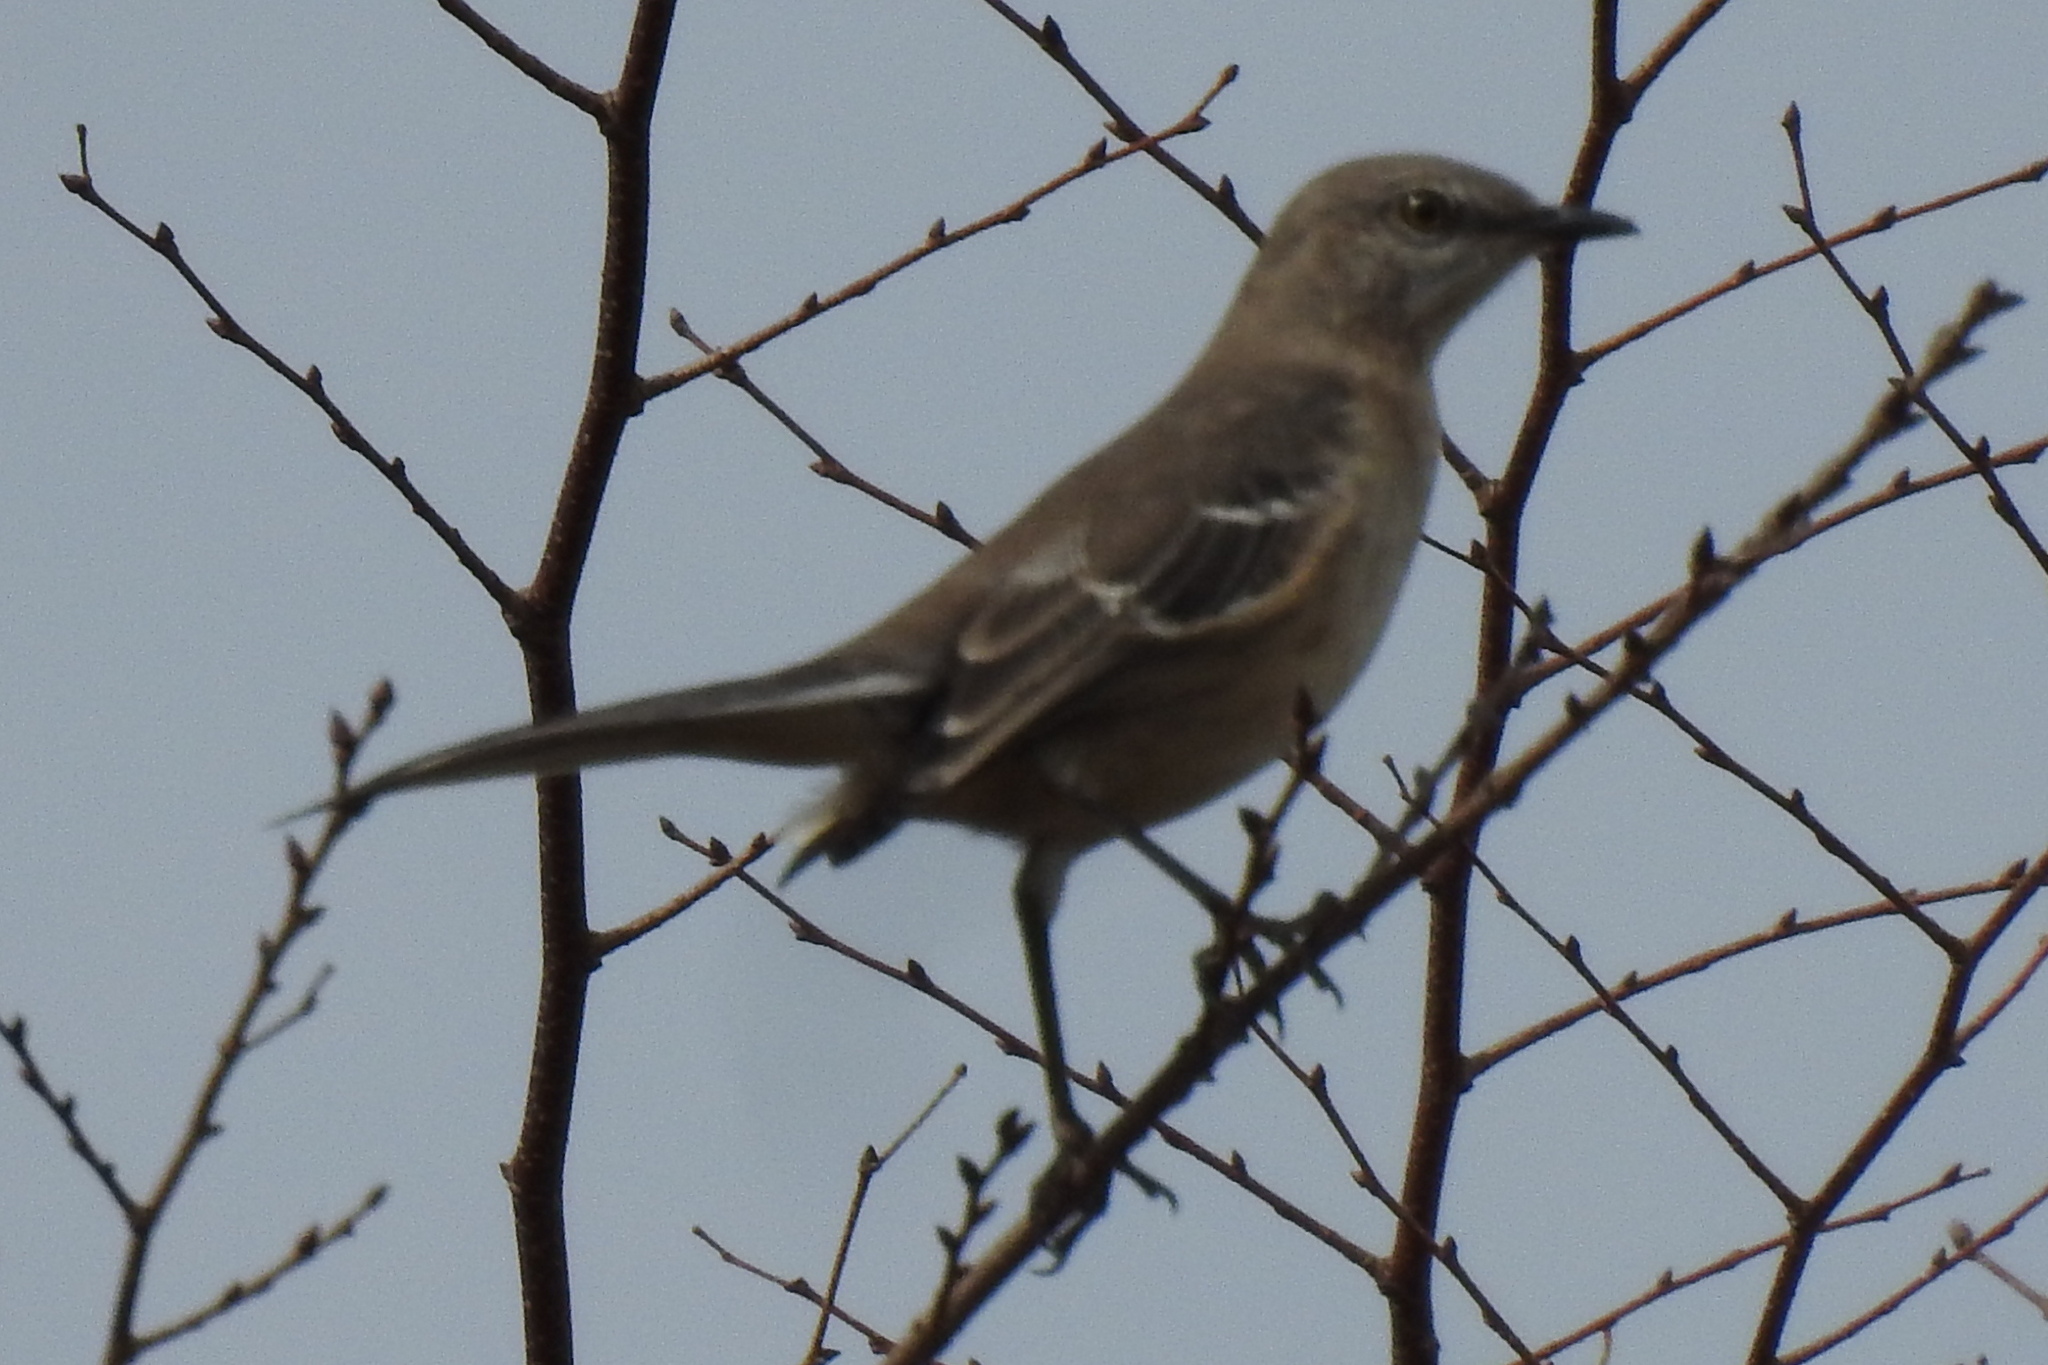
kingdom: Animalia
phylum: Chordata
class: Aves
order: Passeriformes
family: Mimidae
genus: Mimus
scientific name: Mimus polyglottos
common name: Northern mockingbird
